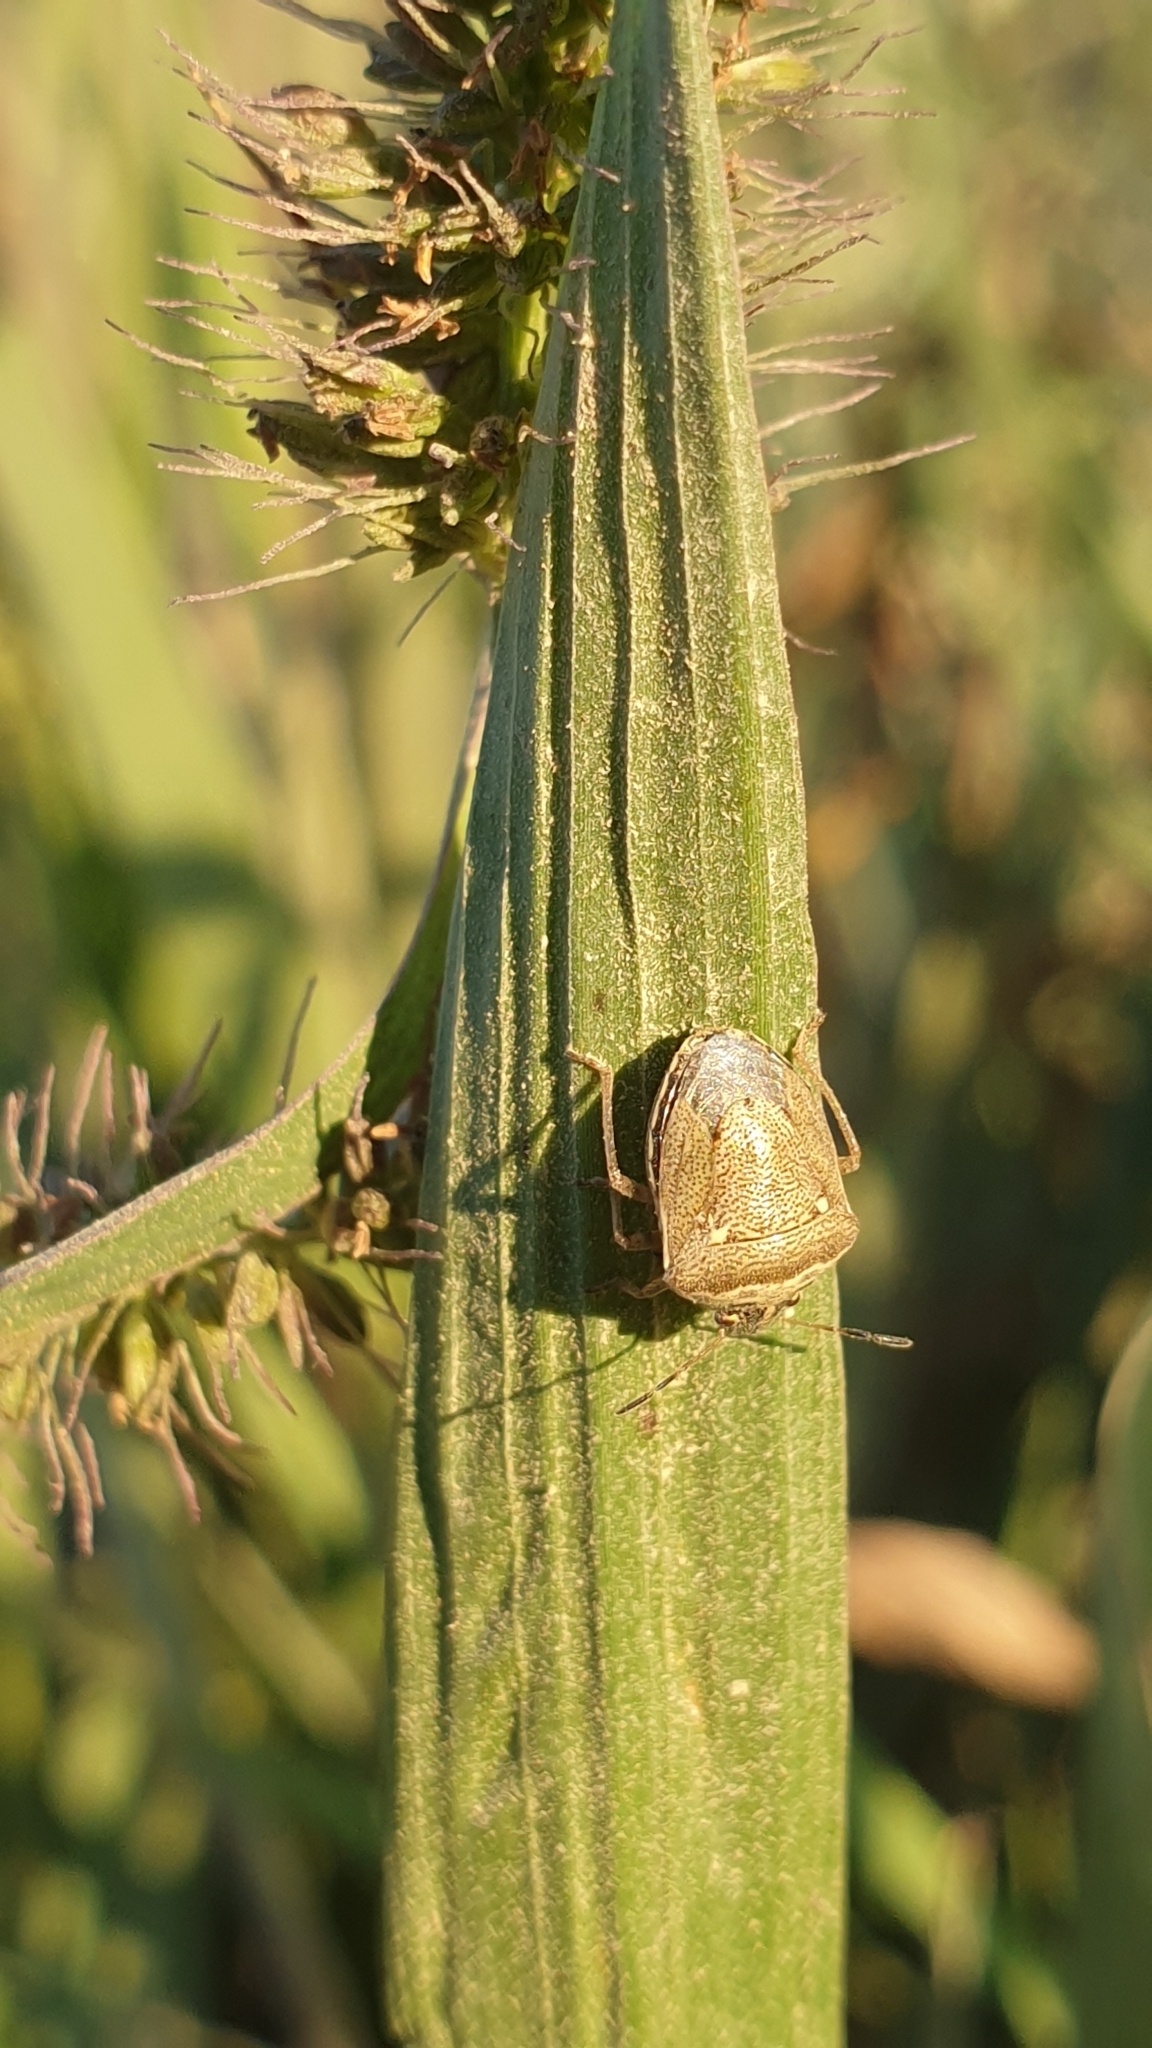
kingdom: Animalia
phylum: Arthropoda
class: Insecta
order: Hemiptera
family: Pentatomidae
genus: Eysarcoris
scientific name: Eysarcoris ventralis
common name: White-spotted stink bug
